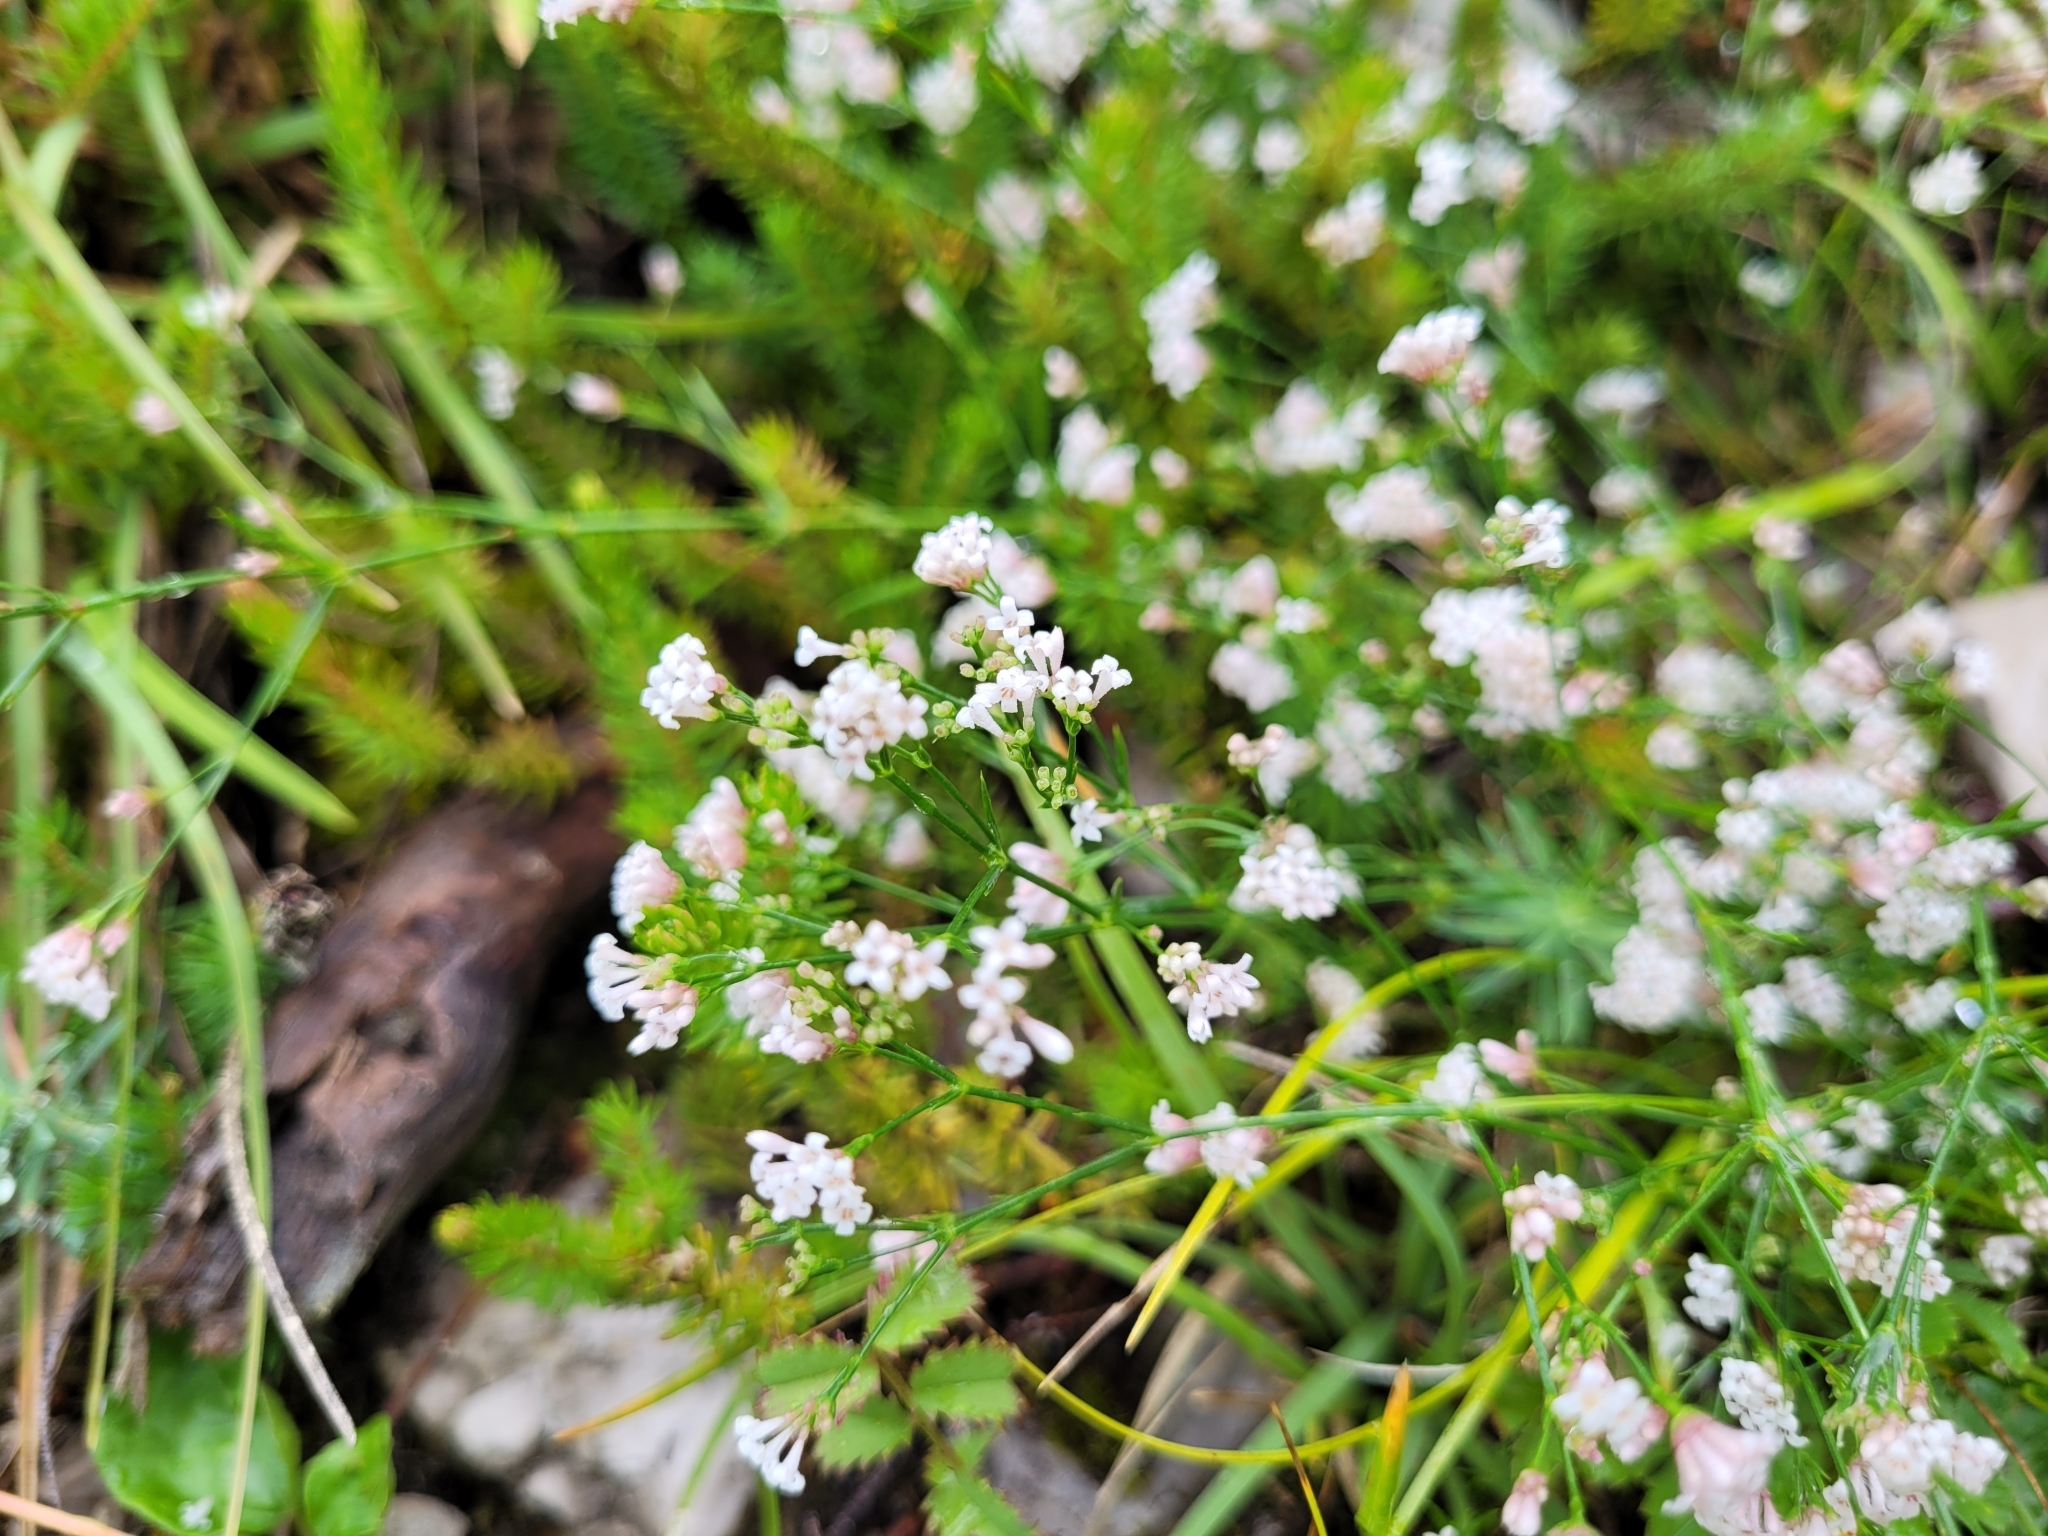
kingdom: Plantae
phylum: Tracheophyta
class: Magnoliopsida
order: Gentianales
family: Rubiaceae
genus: Cynanchica
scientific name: Cynanchica pyrenaica
